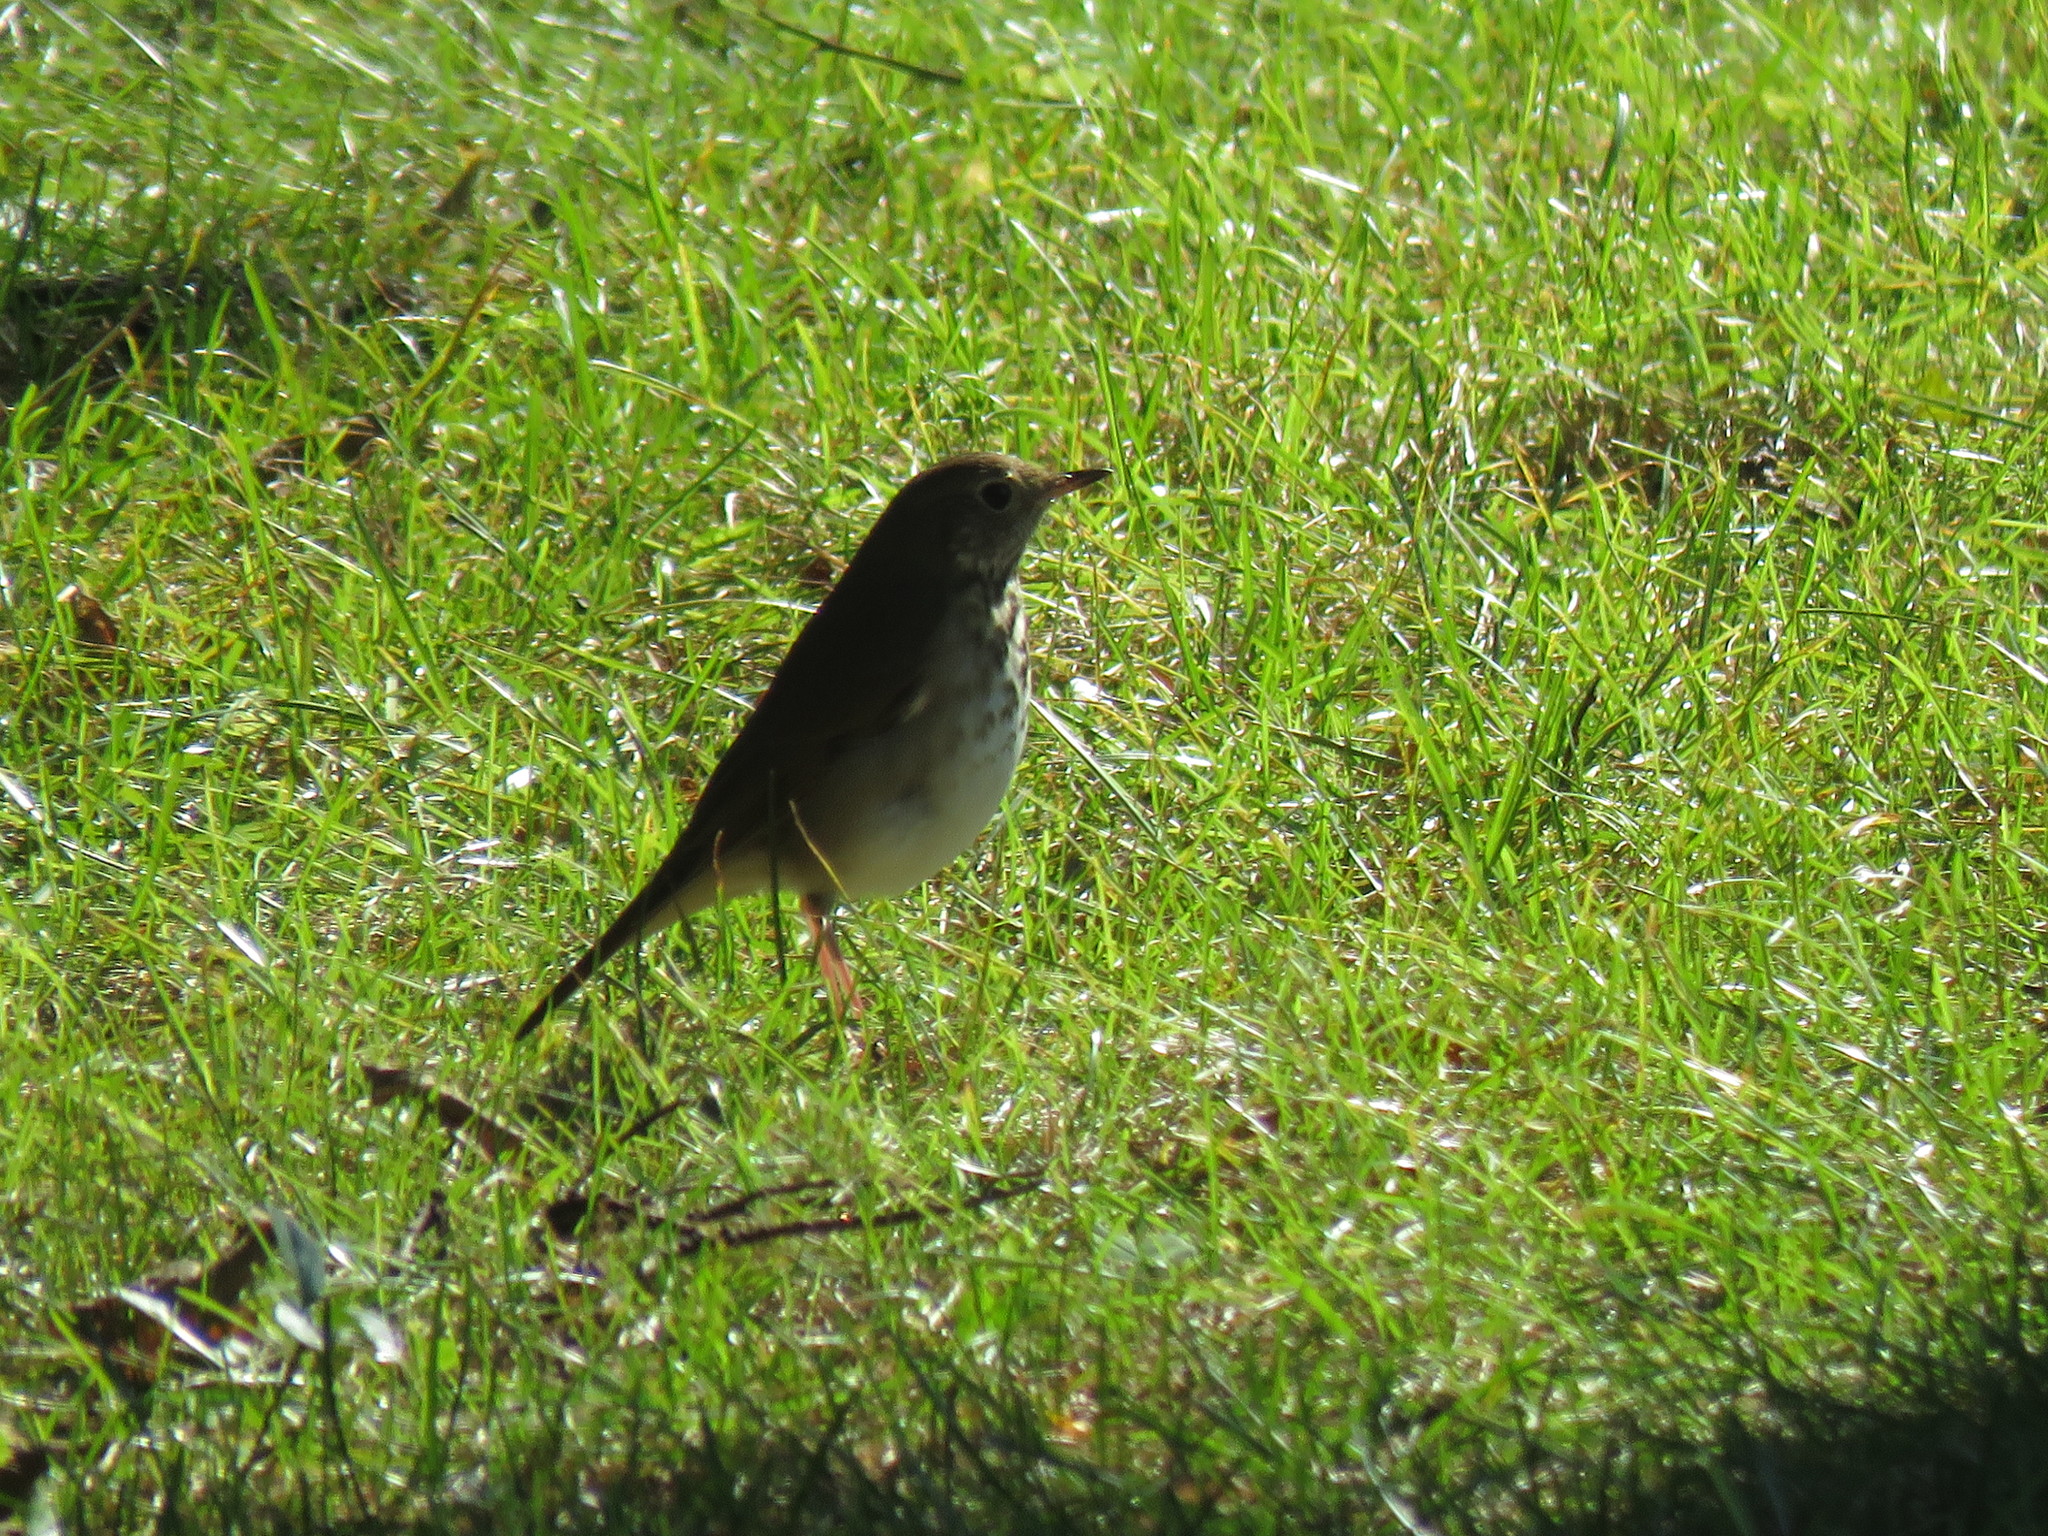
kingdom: Animalia
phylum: Chordata
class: Aves
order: Passeriformes
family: Turdidae
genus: Catharus
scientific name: Catharus guttatus
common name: Hermit thrush
